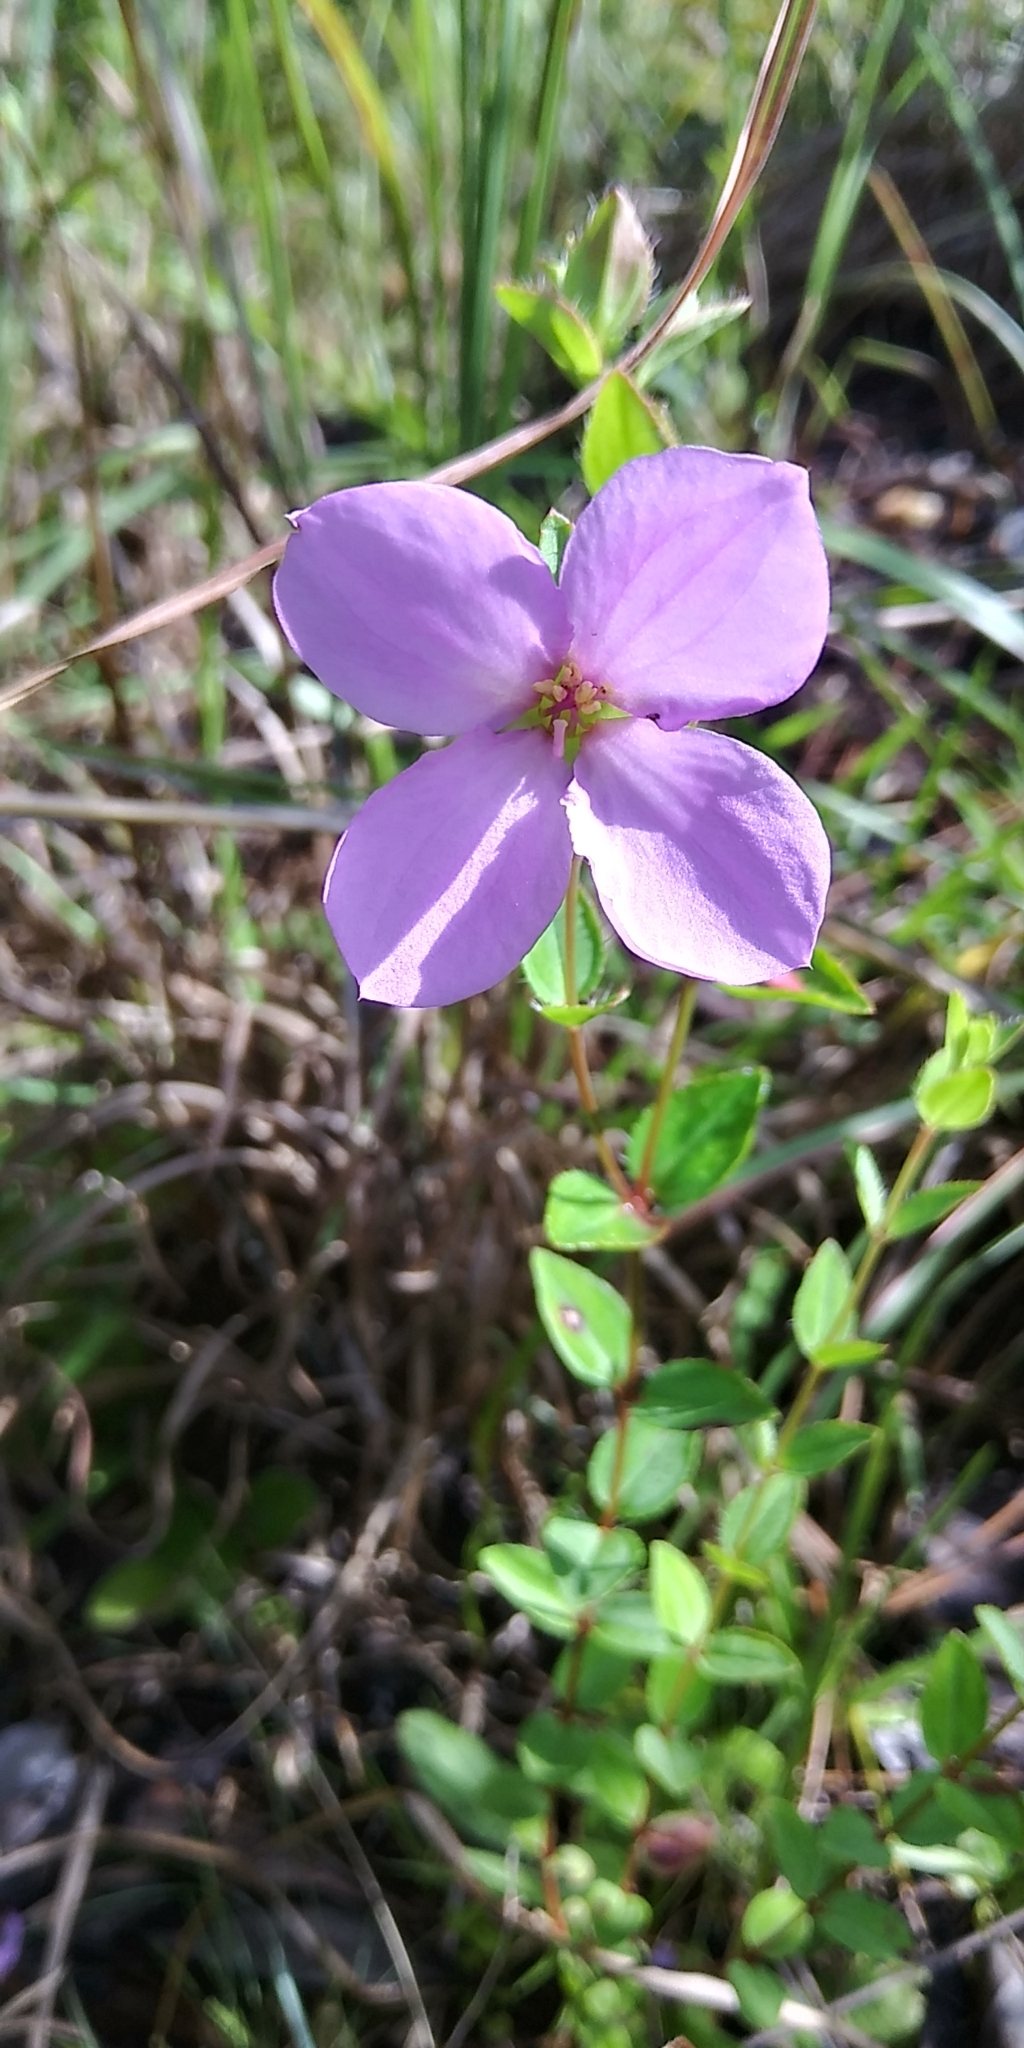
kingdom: Plantae
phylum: Tracheophyta
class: Magnoliopsida
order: Myrtales
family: Melastomataceae
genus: Rhexia
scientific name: Rhexia petiolata
